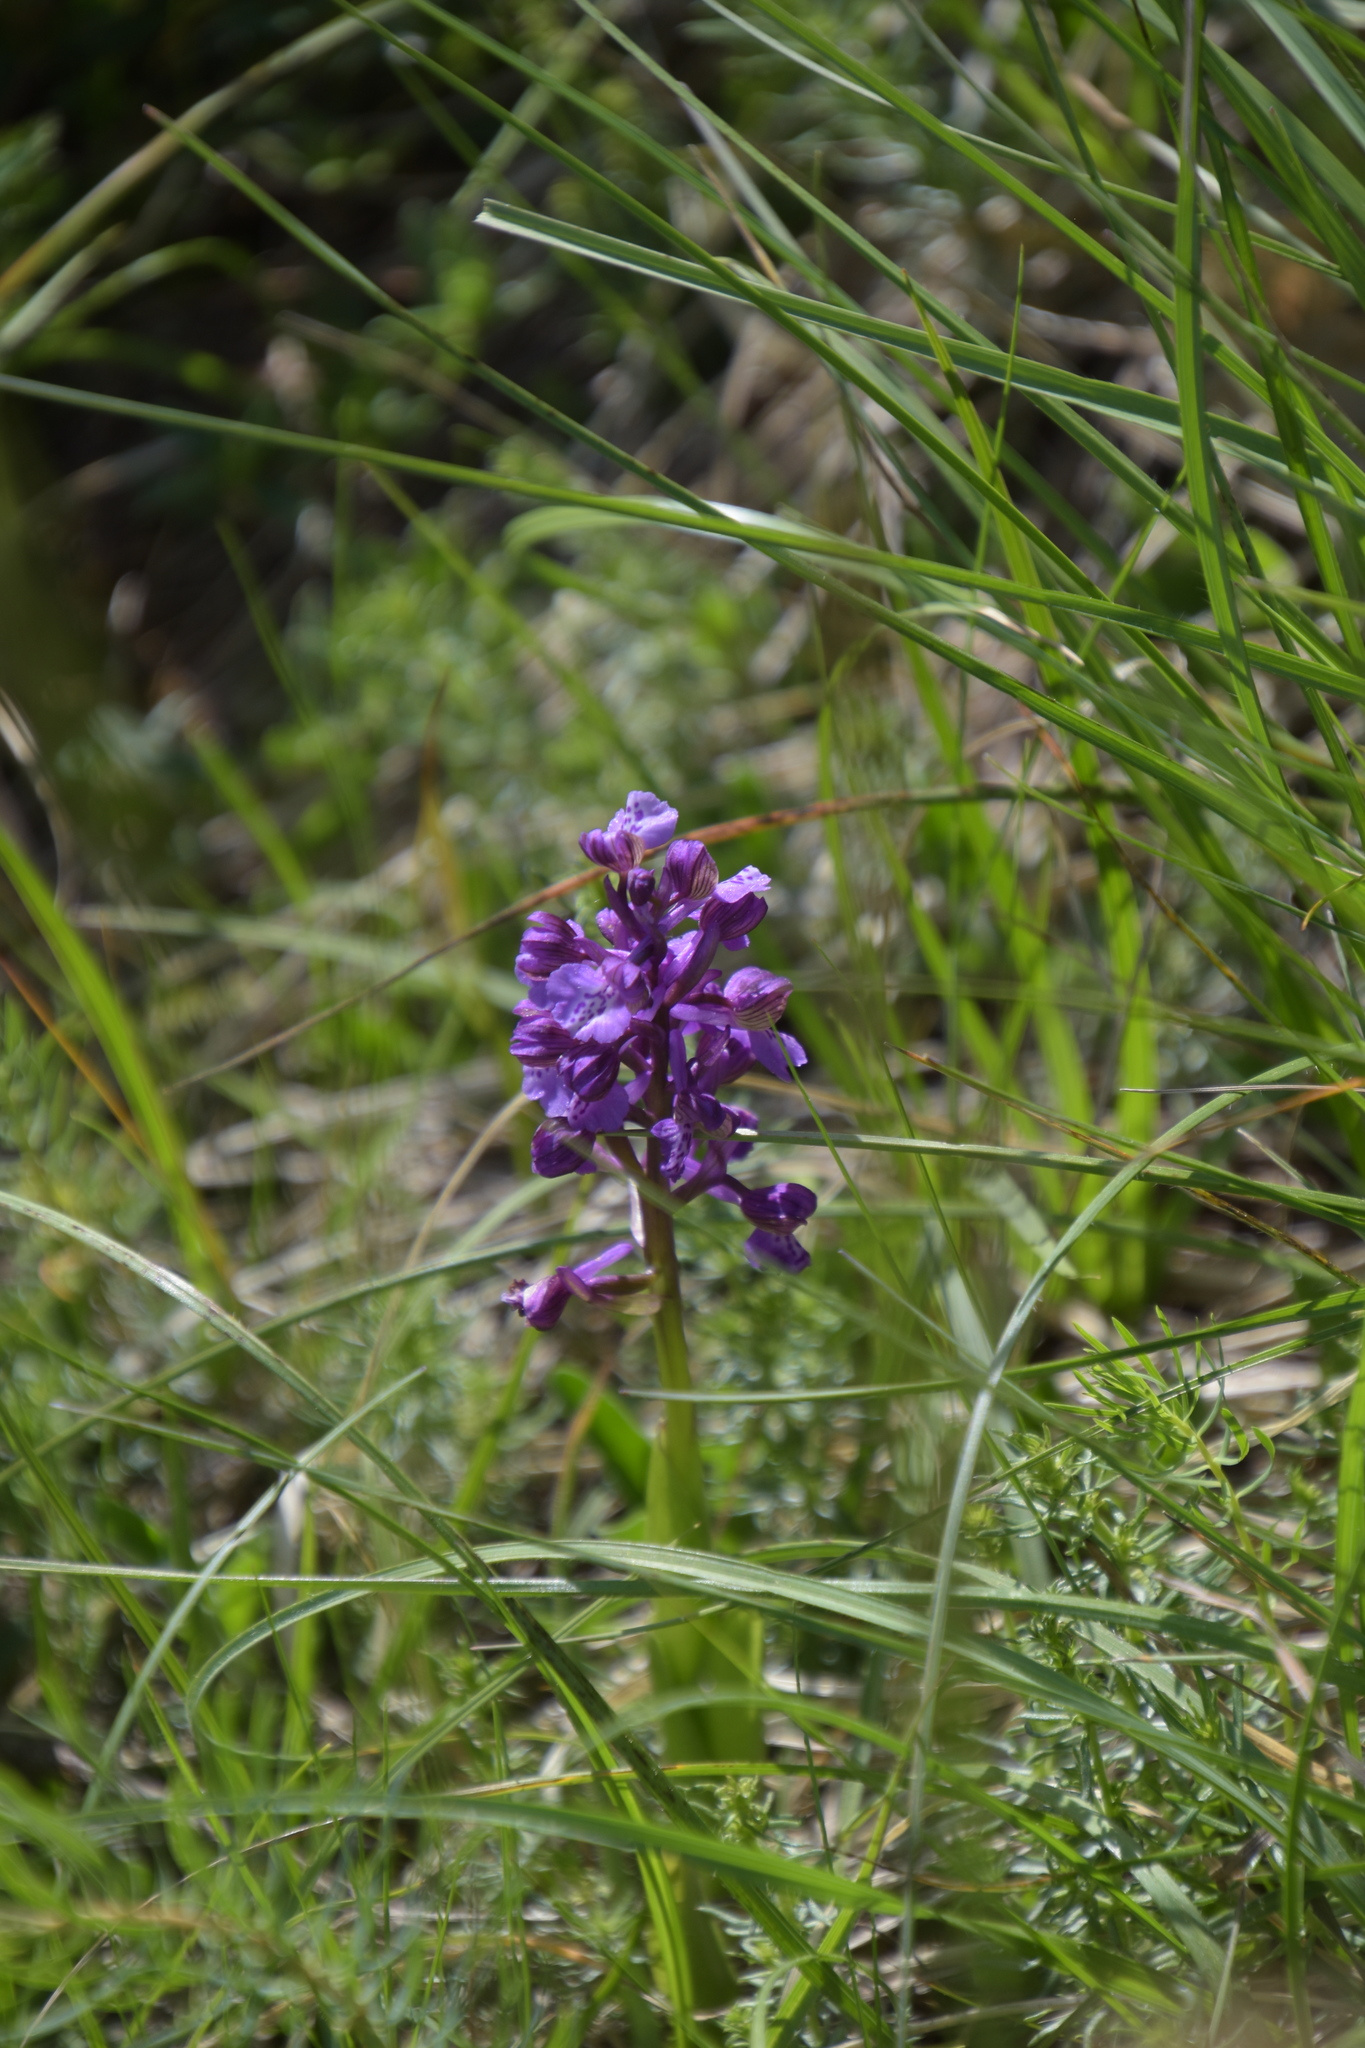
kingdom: Plantae
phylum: Tracheophyta
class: Liliopsida
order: Asparagales
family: Orchidaceae
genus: Anacamptis
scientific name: Anacamptis morio
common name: Green-winged orchid
